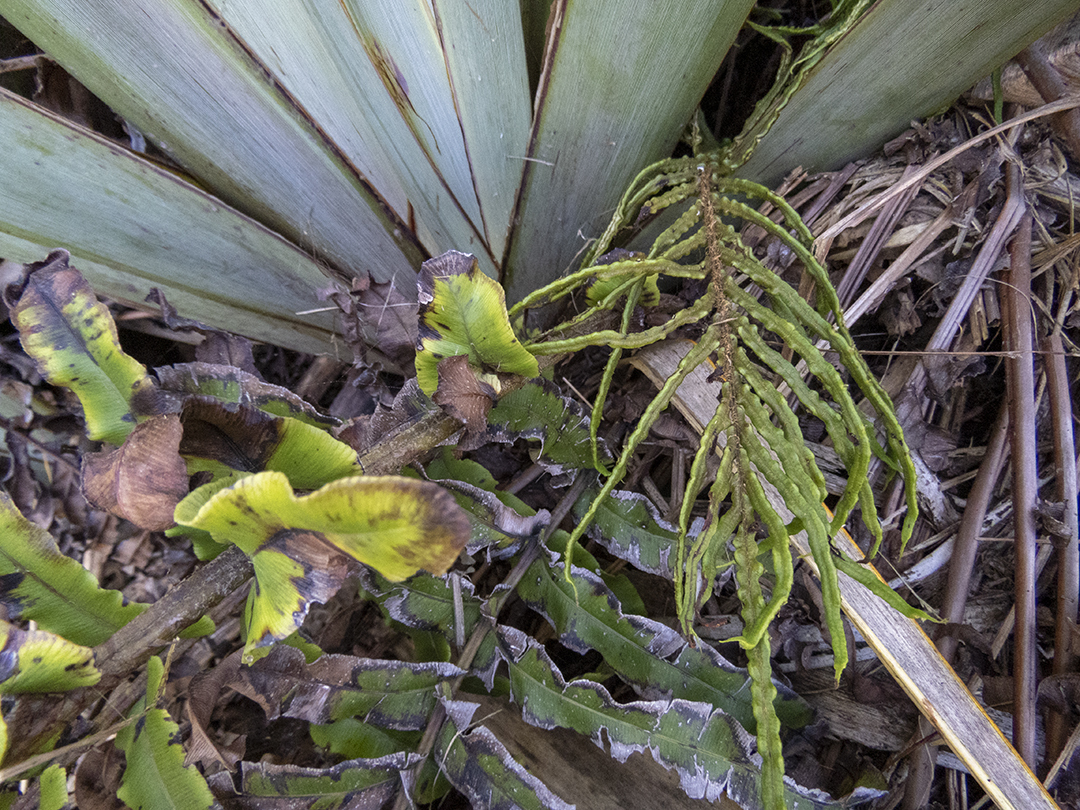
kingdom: Plantae
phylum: Tracheophyta
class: Polypodiopsida
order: Polypodiales
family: Blechnaceae
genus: Parablechnum
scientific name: Parablechnum novae-zelandiae
